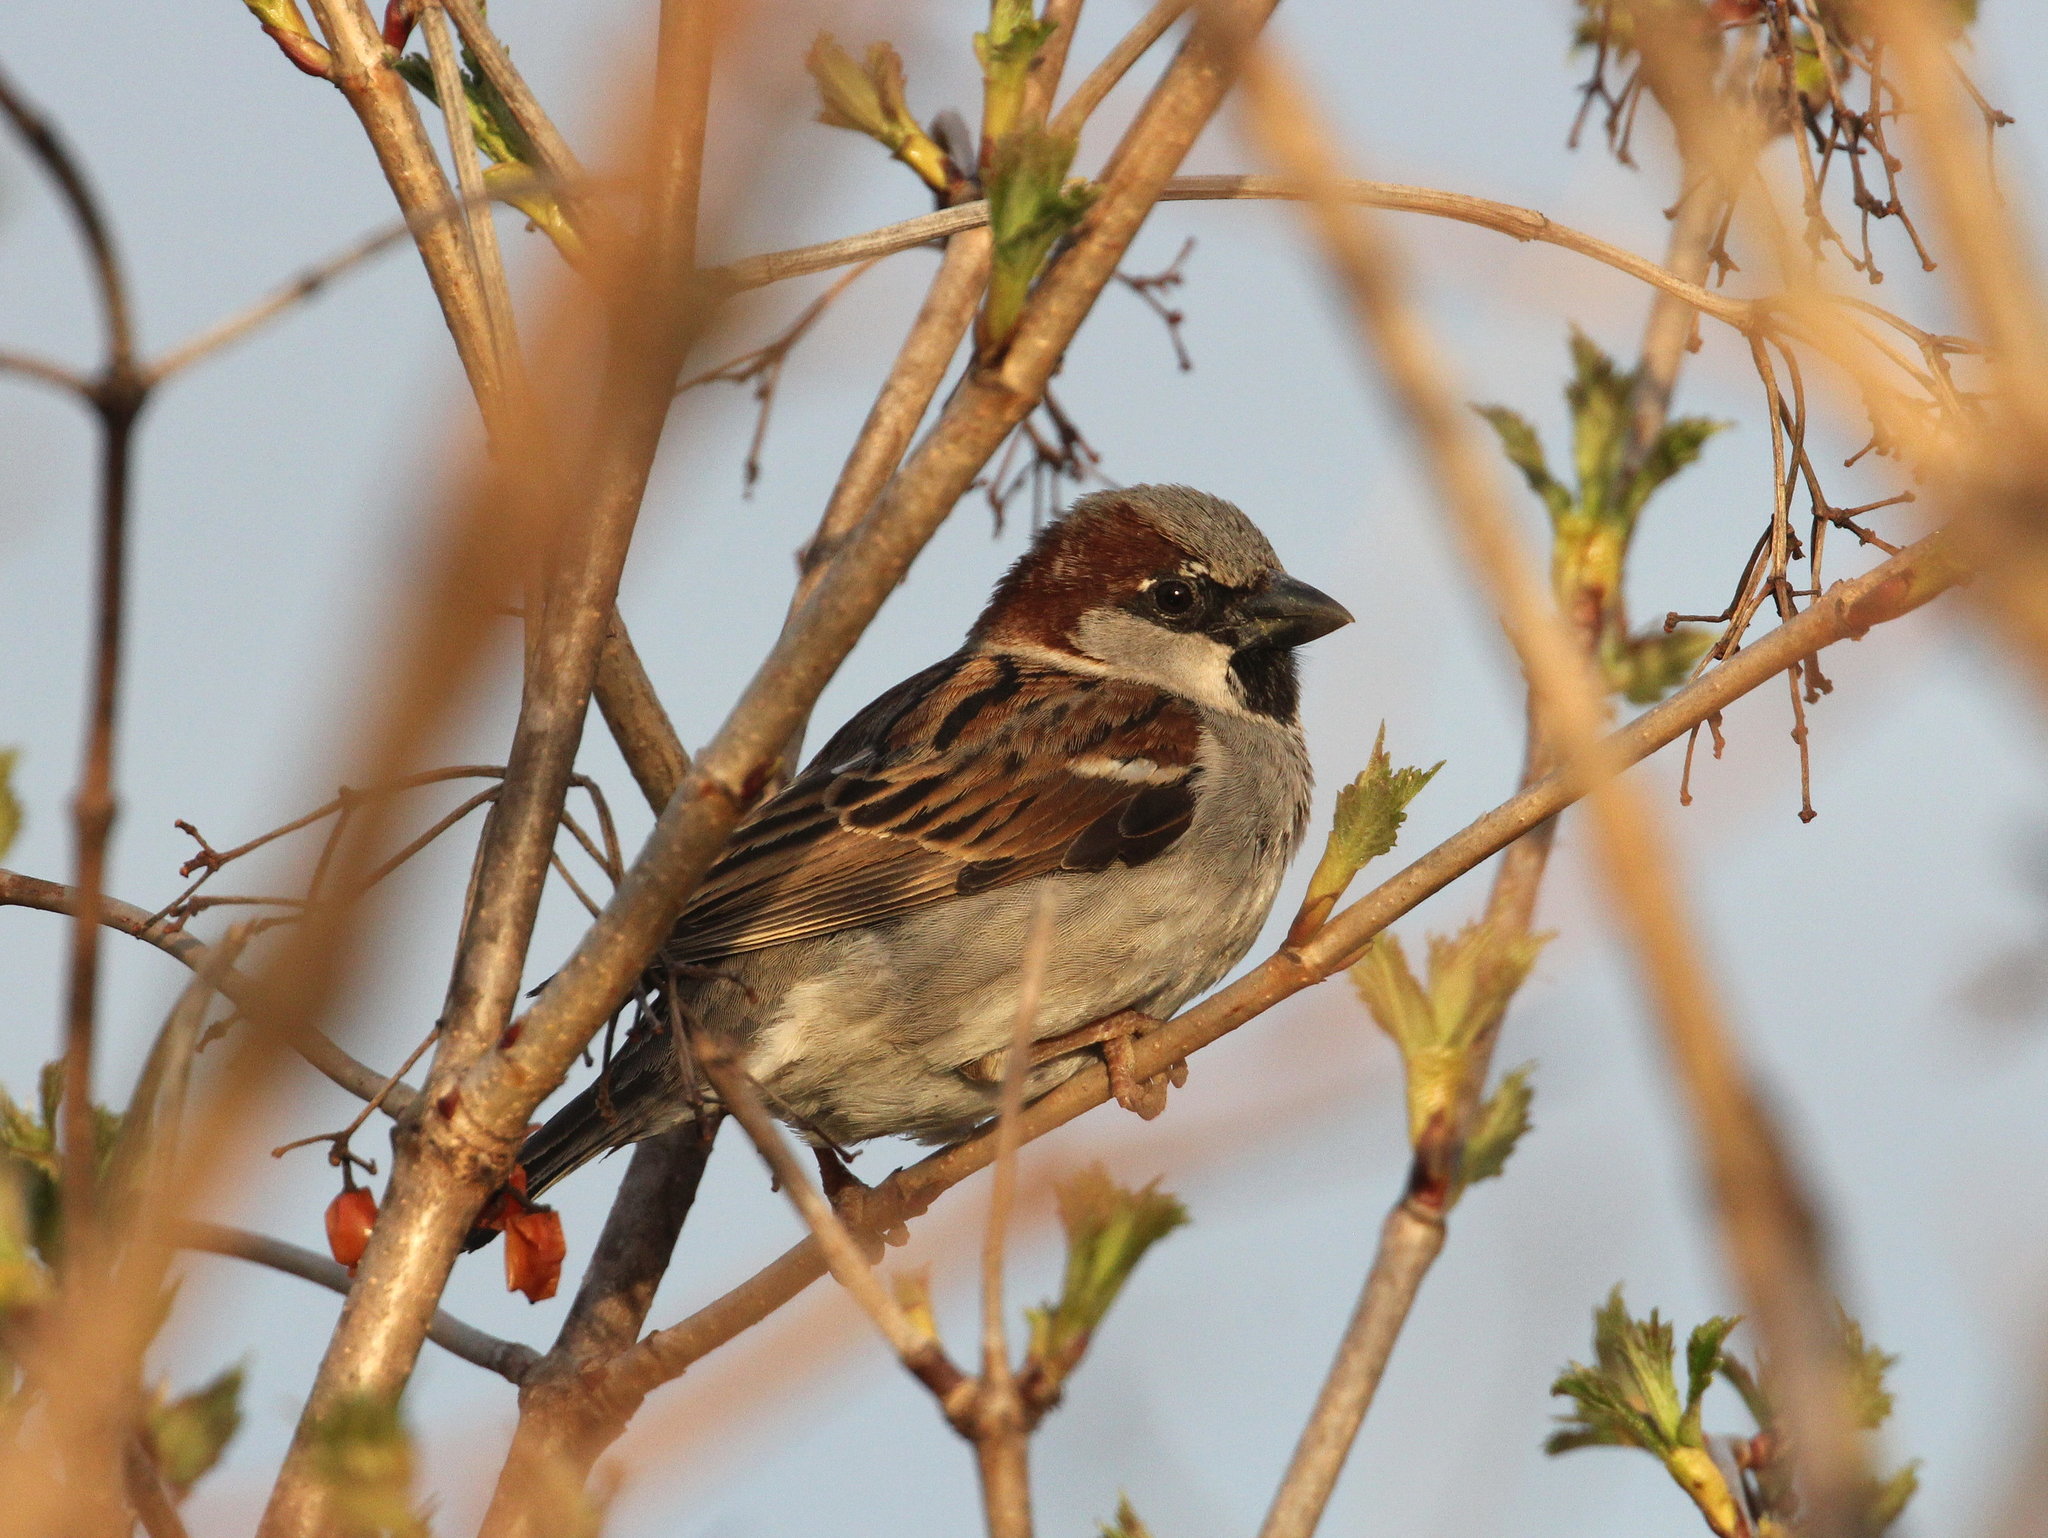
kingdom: Animalia
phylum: Chordata
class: Aves
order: Passeriformes
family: Passeridae
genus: Passer
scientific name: Passer domesticus
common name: House sparrow
